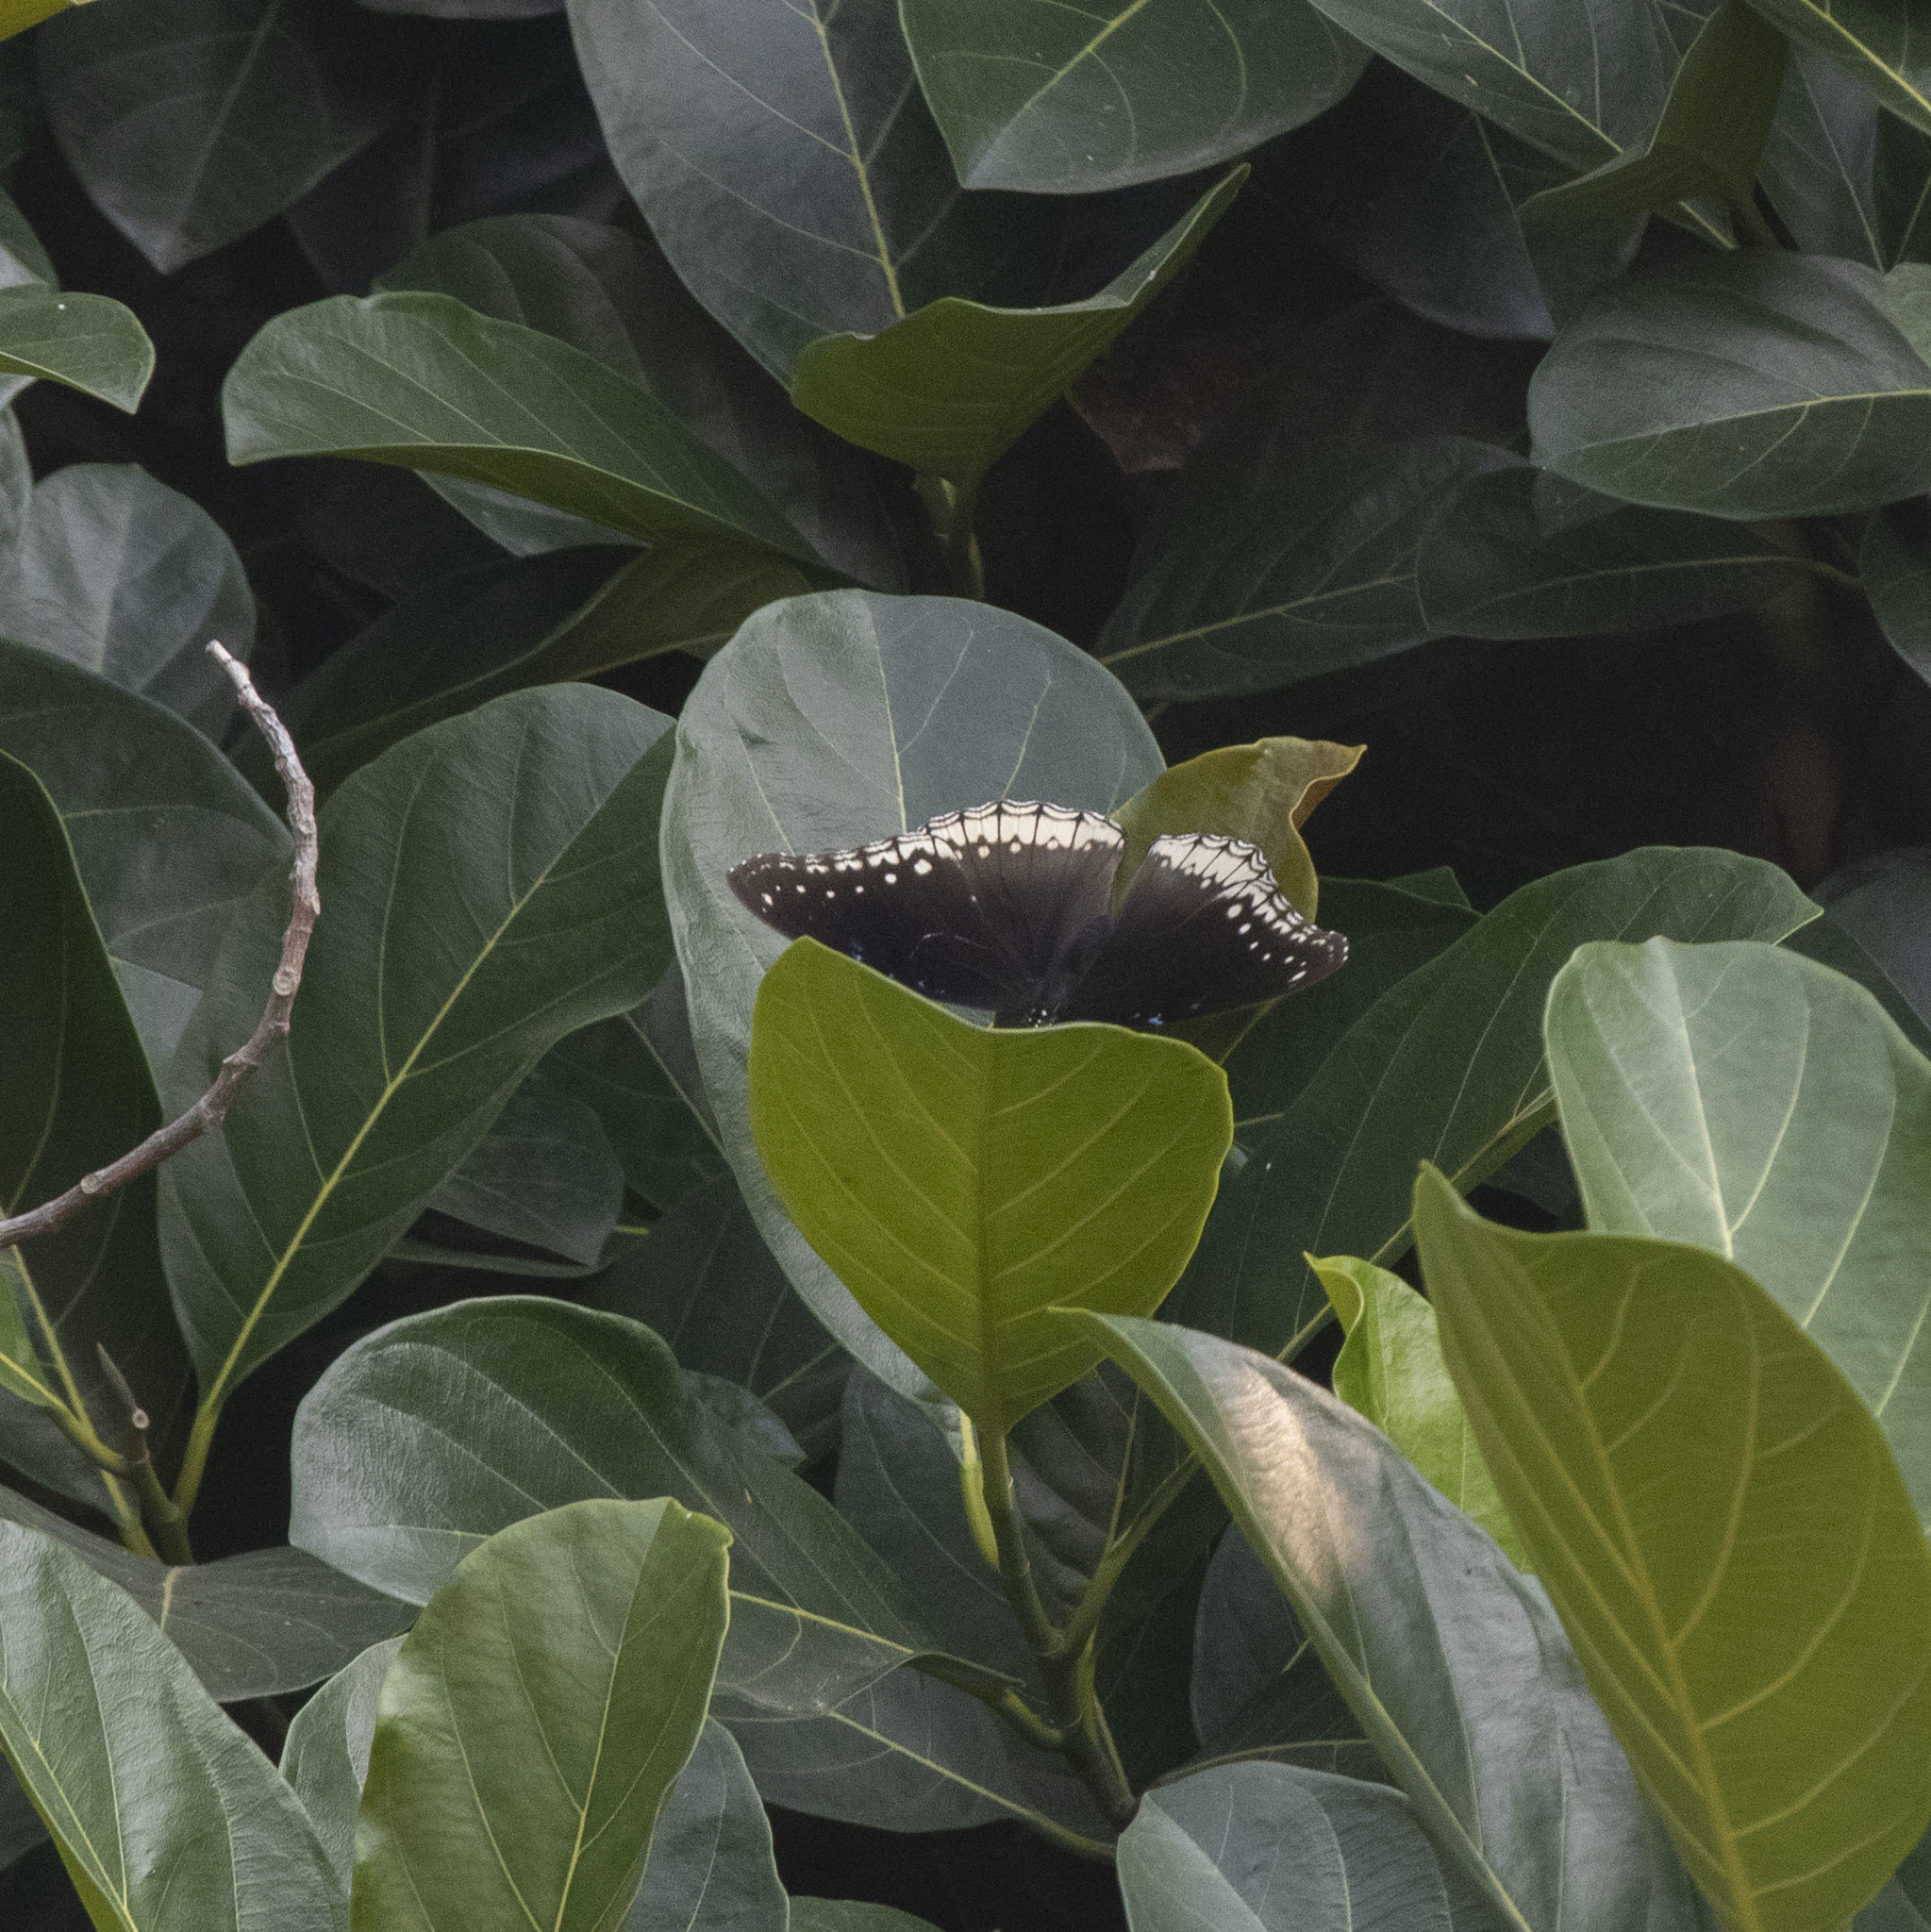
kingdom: Animalia
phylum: Arthropoda
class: Insecta
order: Lepidoptera
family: Nymphalidae
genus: Hypolimnas
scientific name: Hypolimnas bolina
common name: Great eggfly
